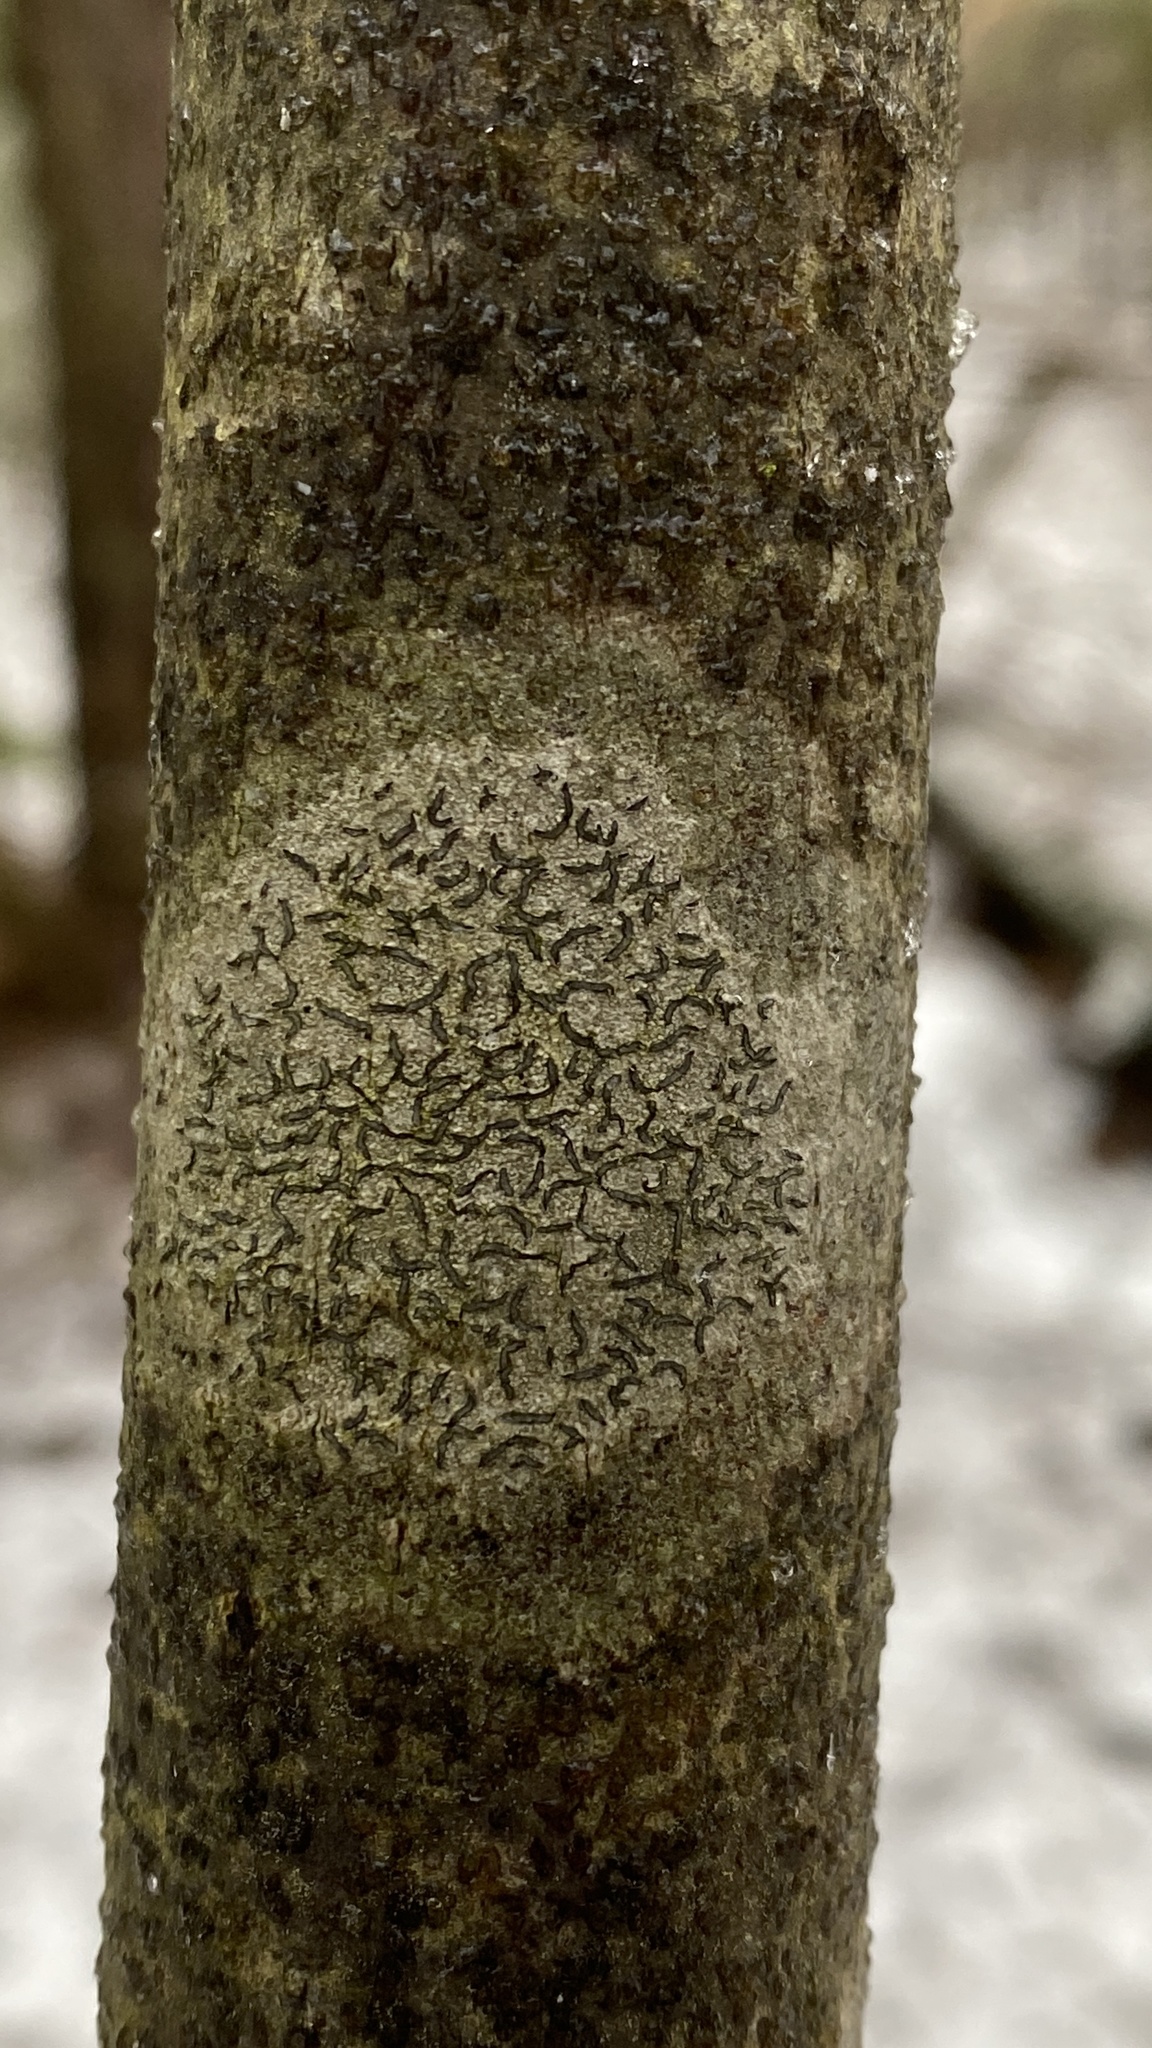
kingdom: Fungi
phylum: Ascomycota
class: Lecanoromycetes
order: Ostropales
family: Graphidaceae
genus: Graphis
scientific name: Graphis scripta
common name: Script lichen
